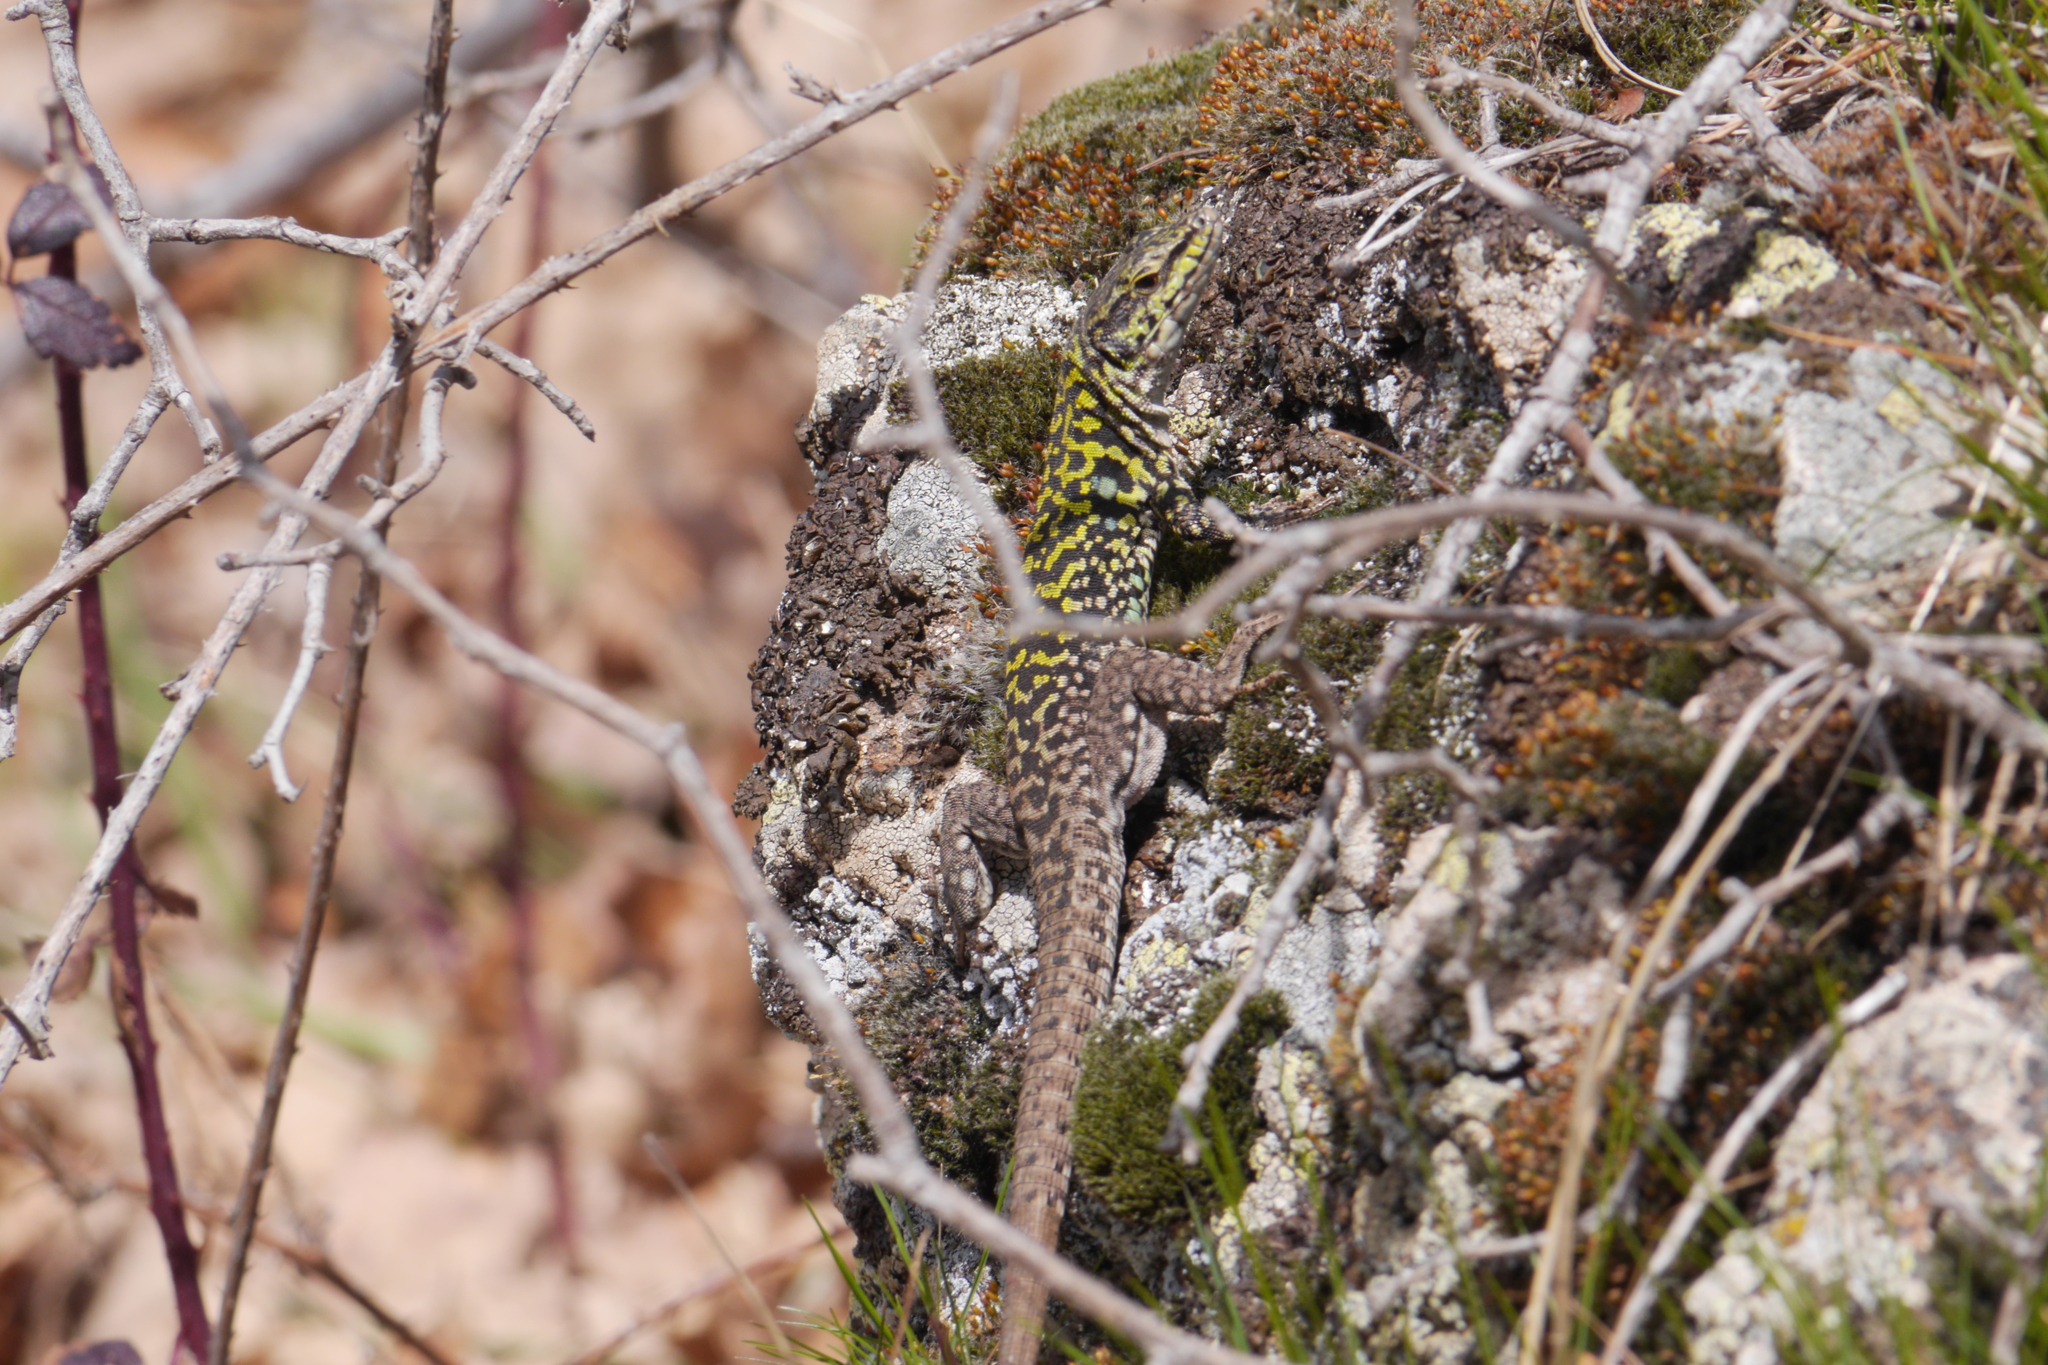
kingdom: Animalia
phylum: Chordata
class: Squamata
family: Lacertidae
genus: Podarcis
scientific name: Podarcis siculus
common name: Italian wall lizard
